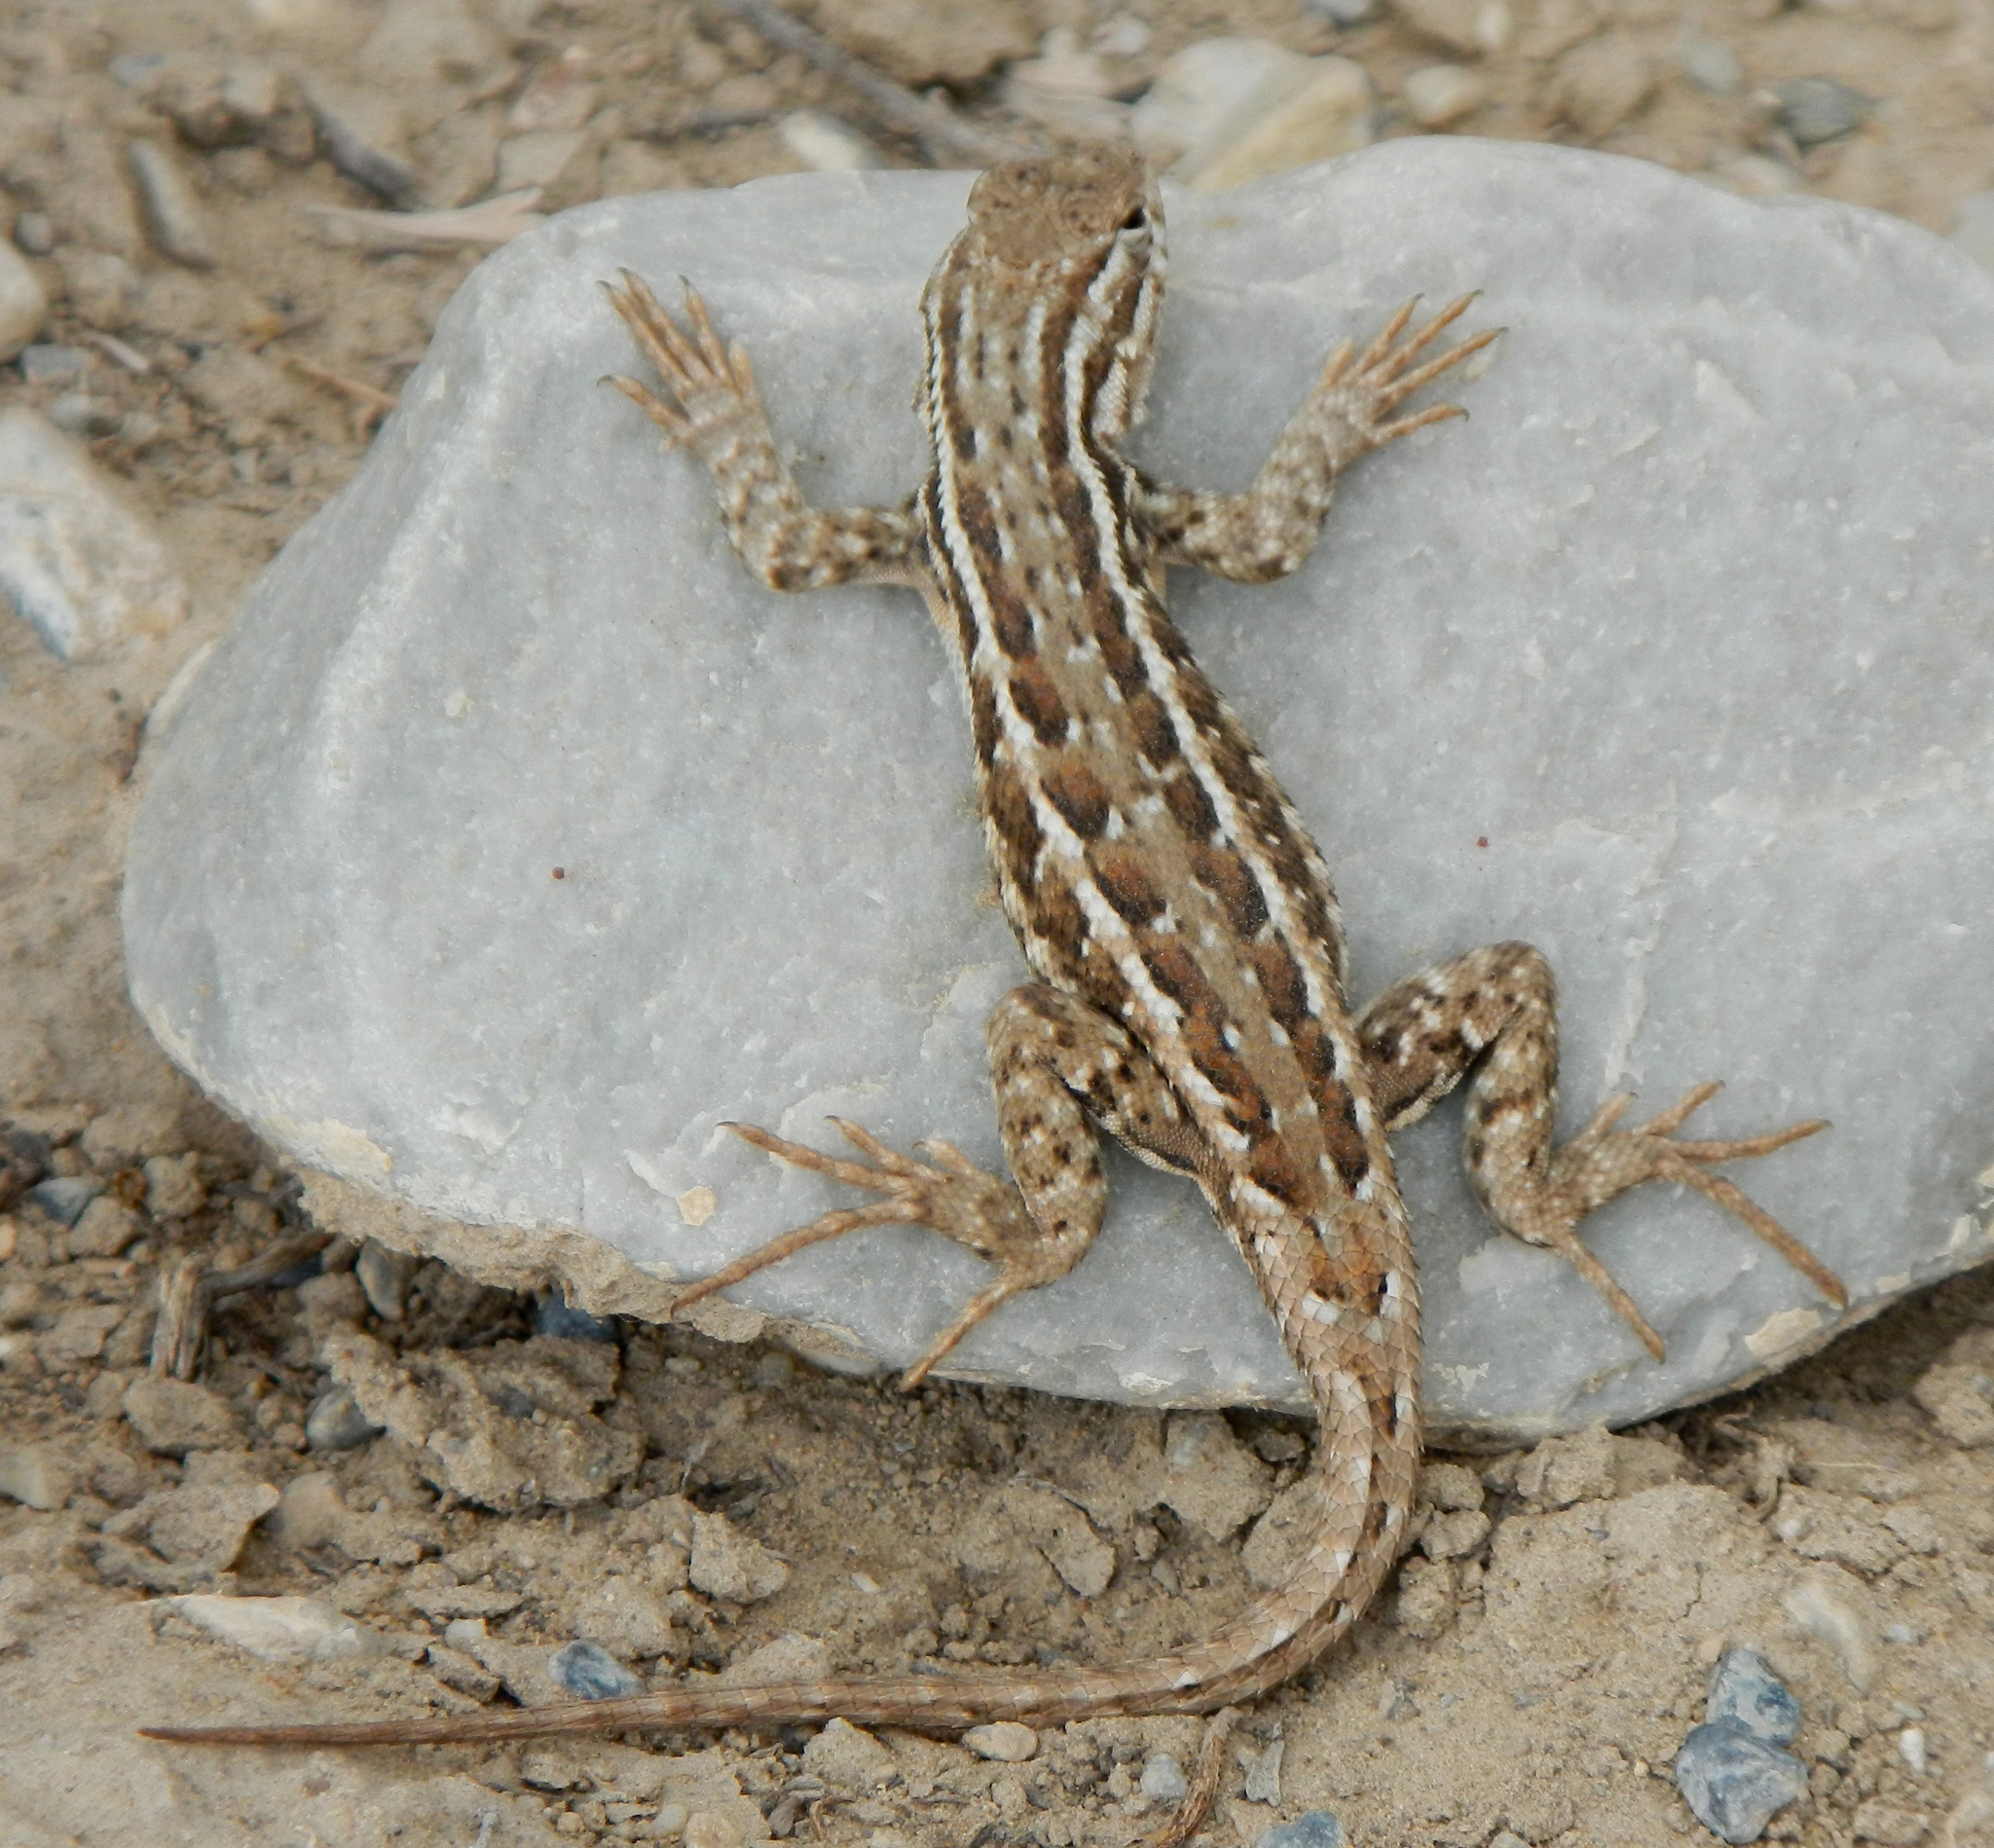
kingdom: Animalia
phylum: Chordata
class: Squamata
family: Phrynosomatidae
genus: Sceloporus
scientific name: Sceloporus graciosus
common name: Sagebrush lizard
